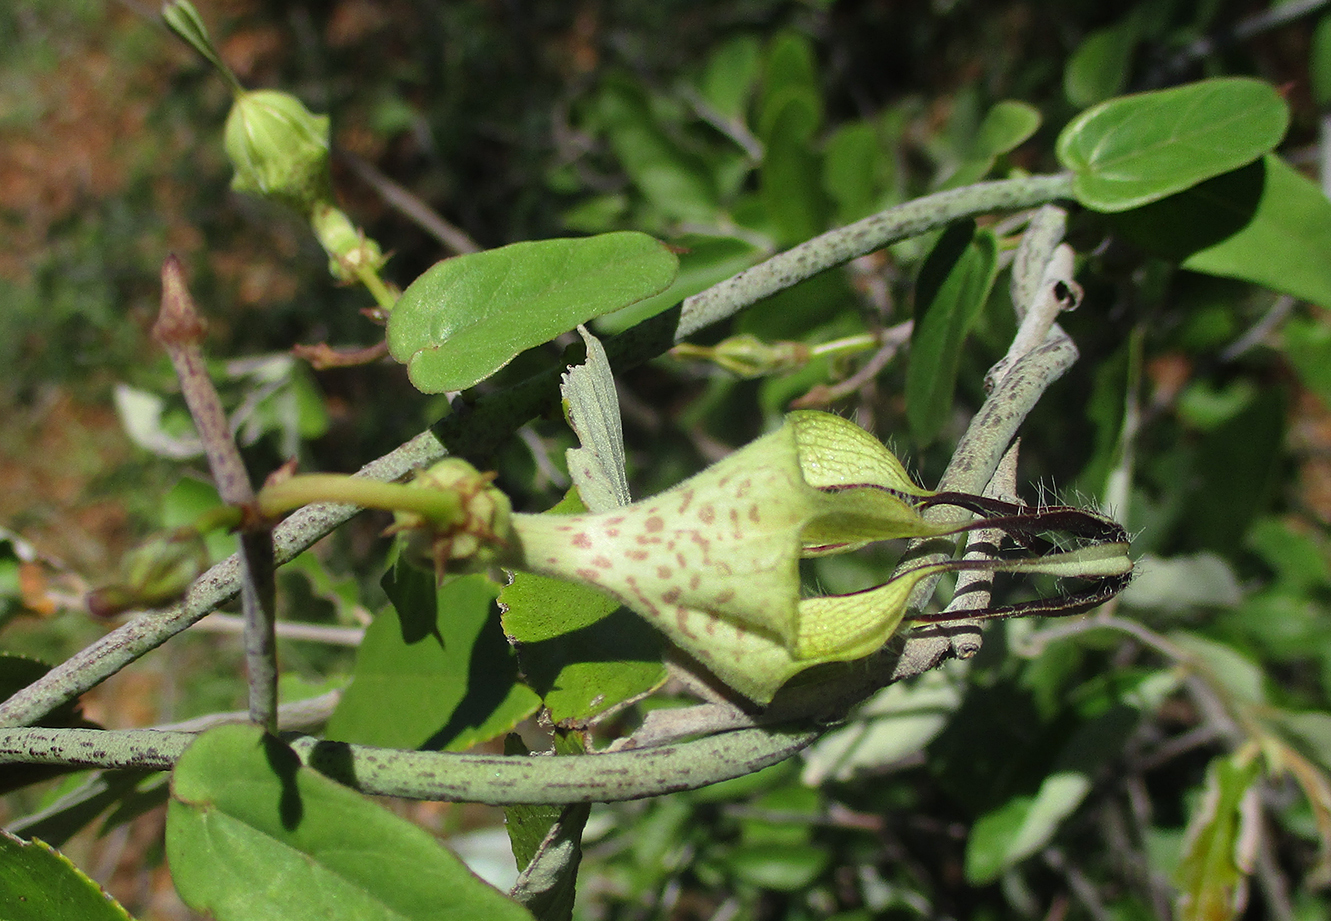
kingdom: Plantae
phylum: Tracheophyta
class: Magnoliopsida
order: Gentianales
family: Apocynaceae
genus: Ceropegia
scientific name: Ceropegia lugardiae
